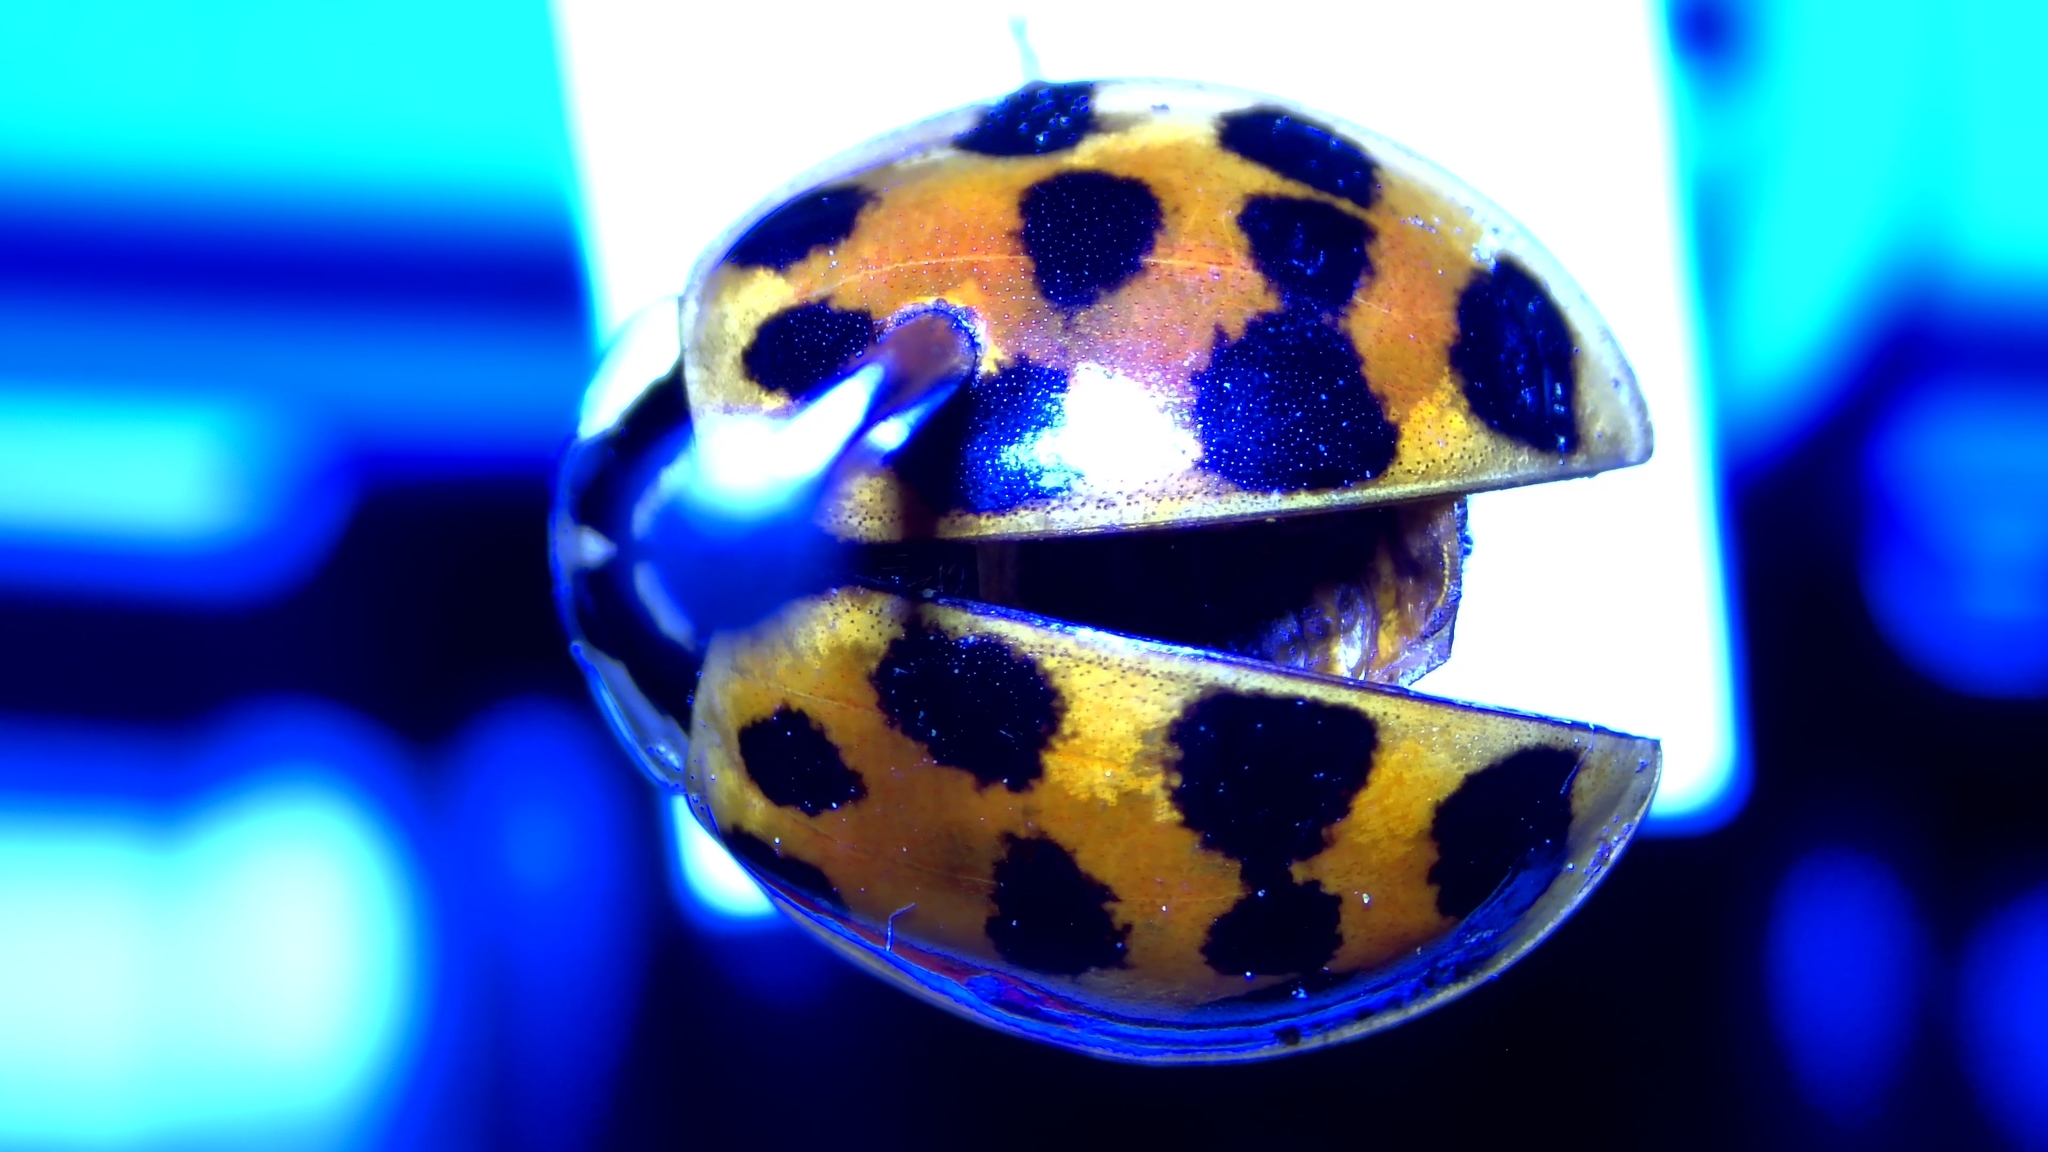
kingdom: Animalia
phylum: Arthropoda
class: Insecta
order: Coleoptera
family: Coccinellidae
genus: Harmonia
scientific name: Harmonia axyridis
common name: Harlequin ladybird
